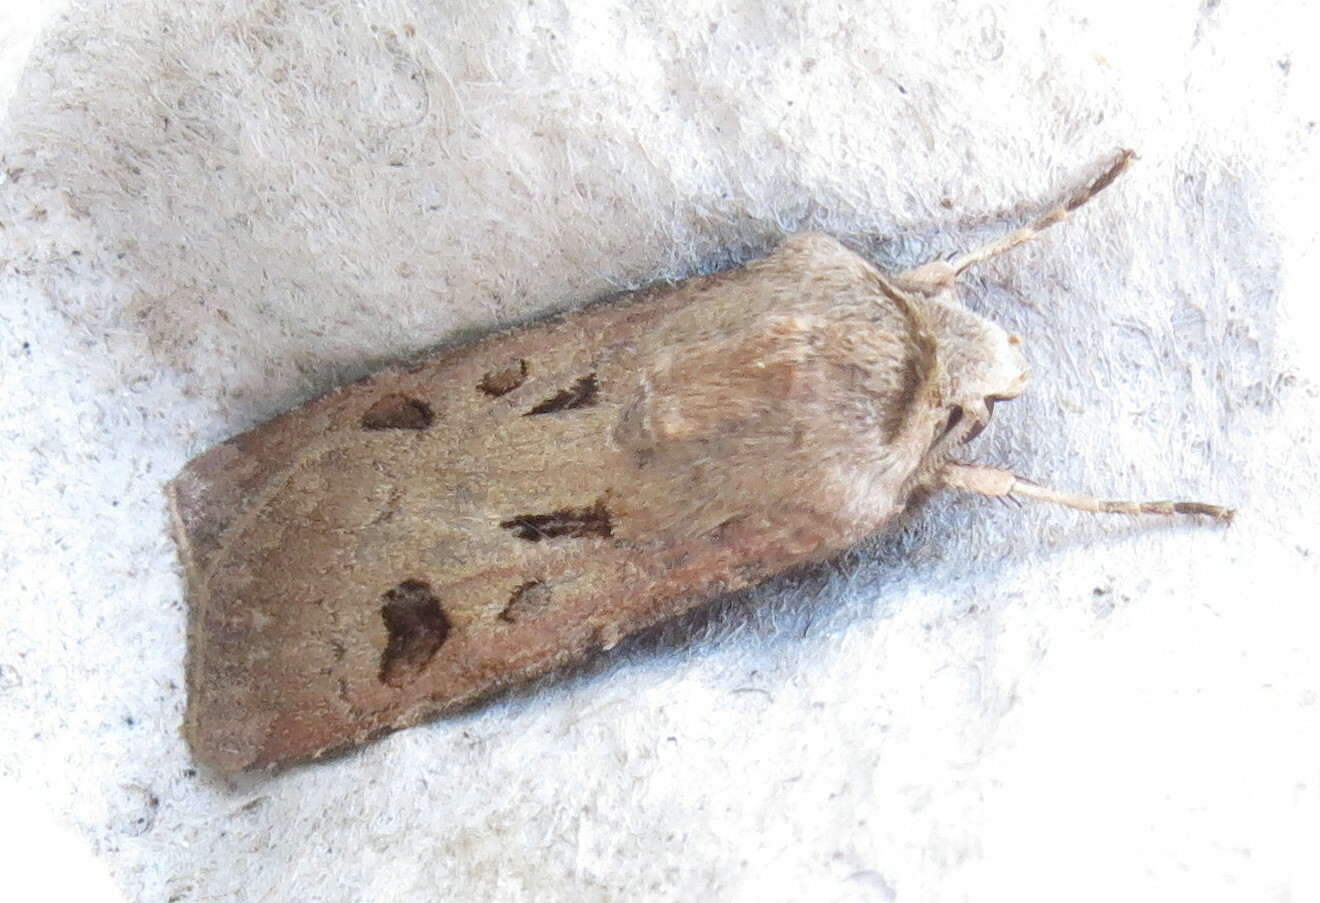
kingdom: Animalia
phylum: Arthropoda
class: Insecta
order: Lepidoptera
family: Noctuidae
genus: Agrotis
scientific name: Agrotis exclamationis
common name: Heart and dart
